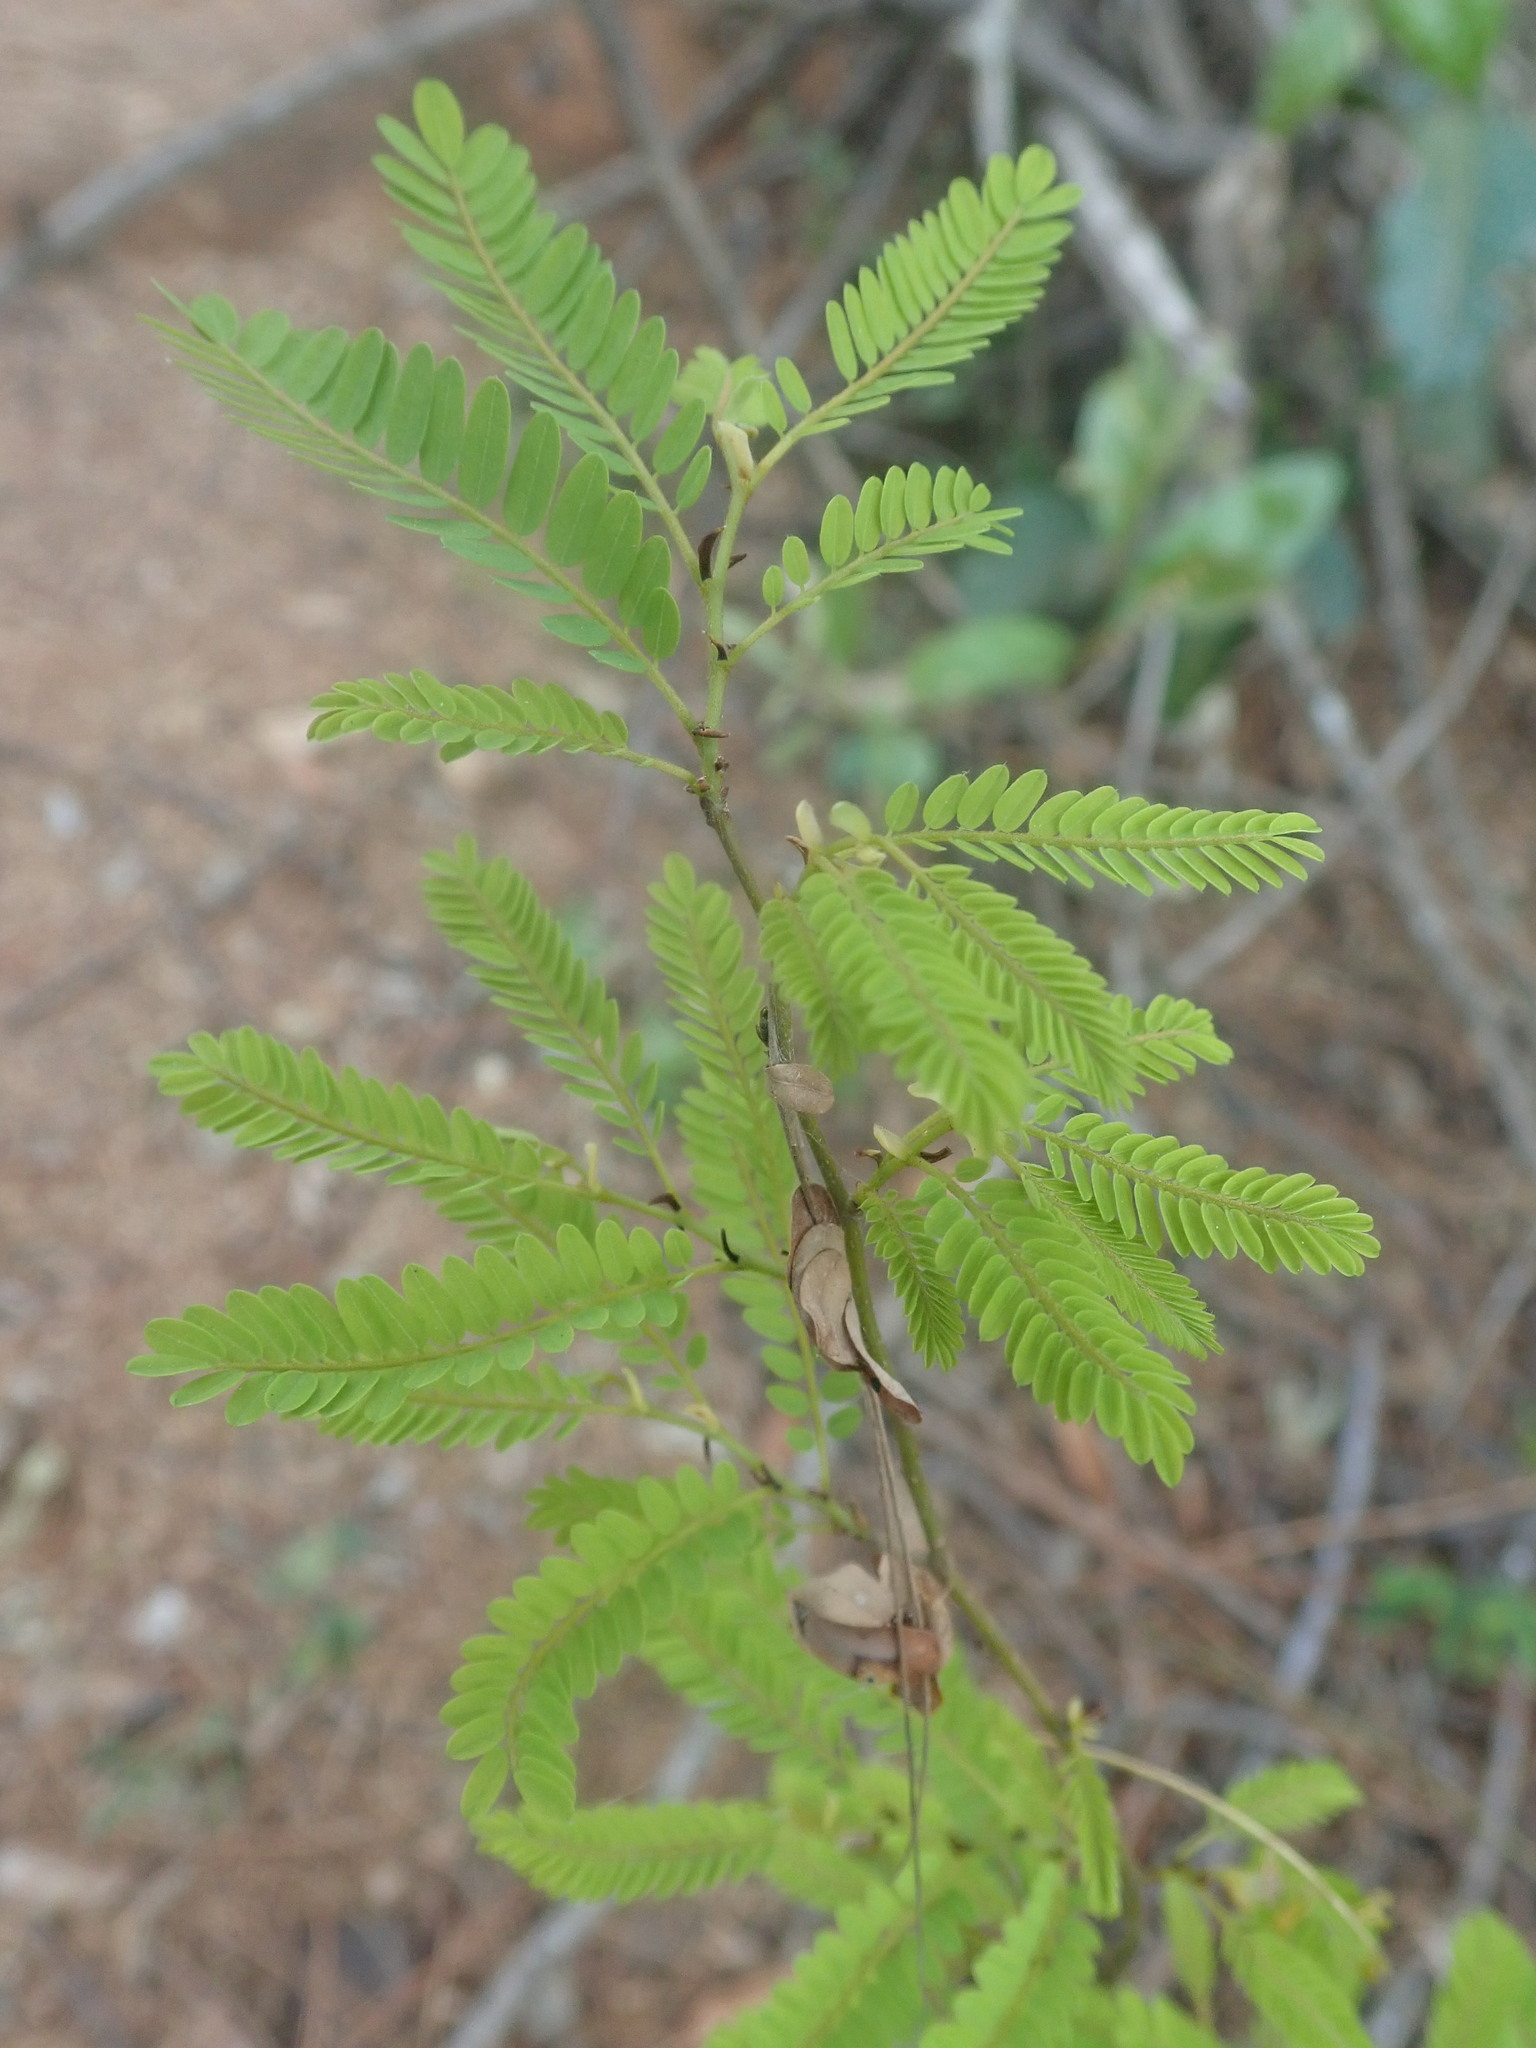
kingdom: Plantae
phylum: Tracheophyta
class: Magnoliopsida
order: Fabales
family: Fabaceae
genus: Dalbergia
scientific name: Dalbergia armata
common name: Hluhluwe climber
